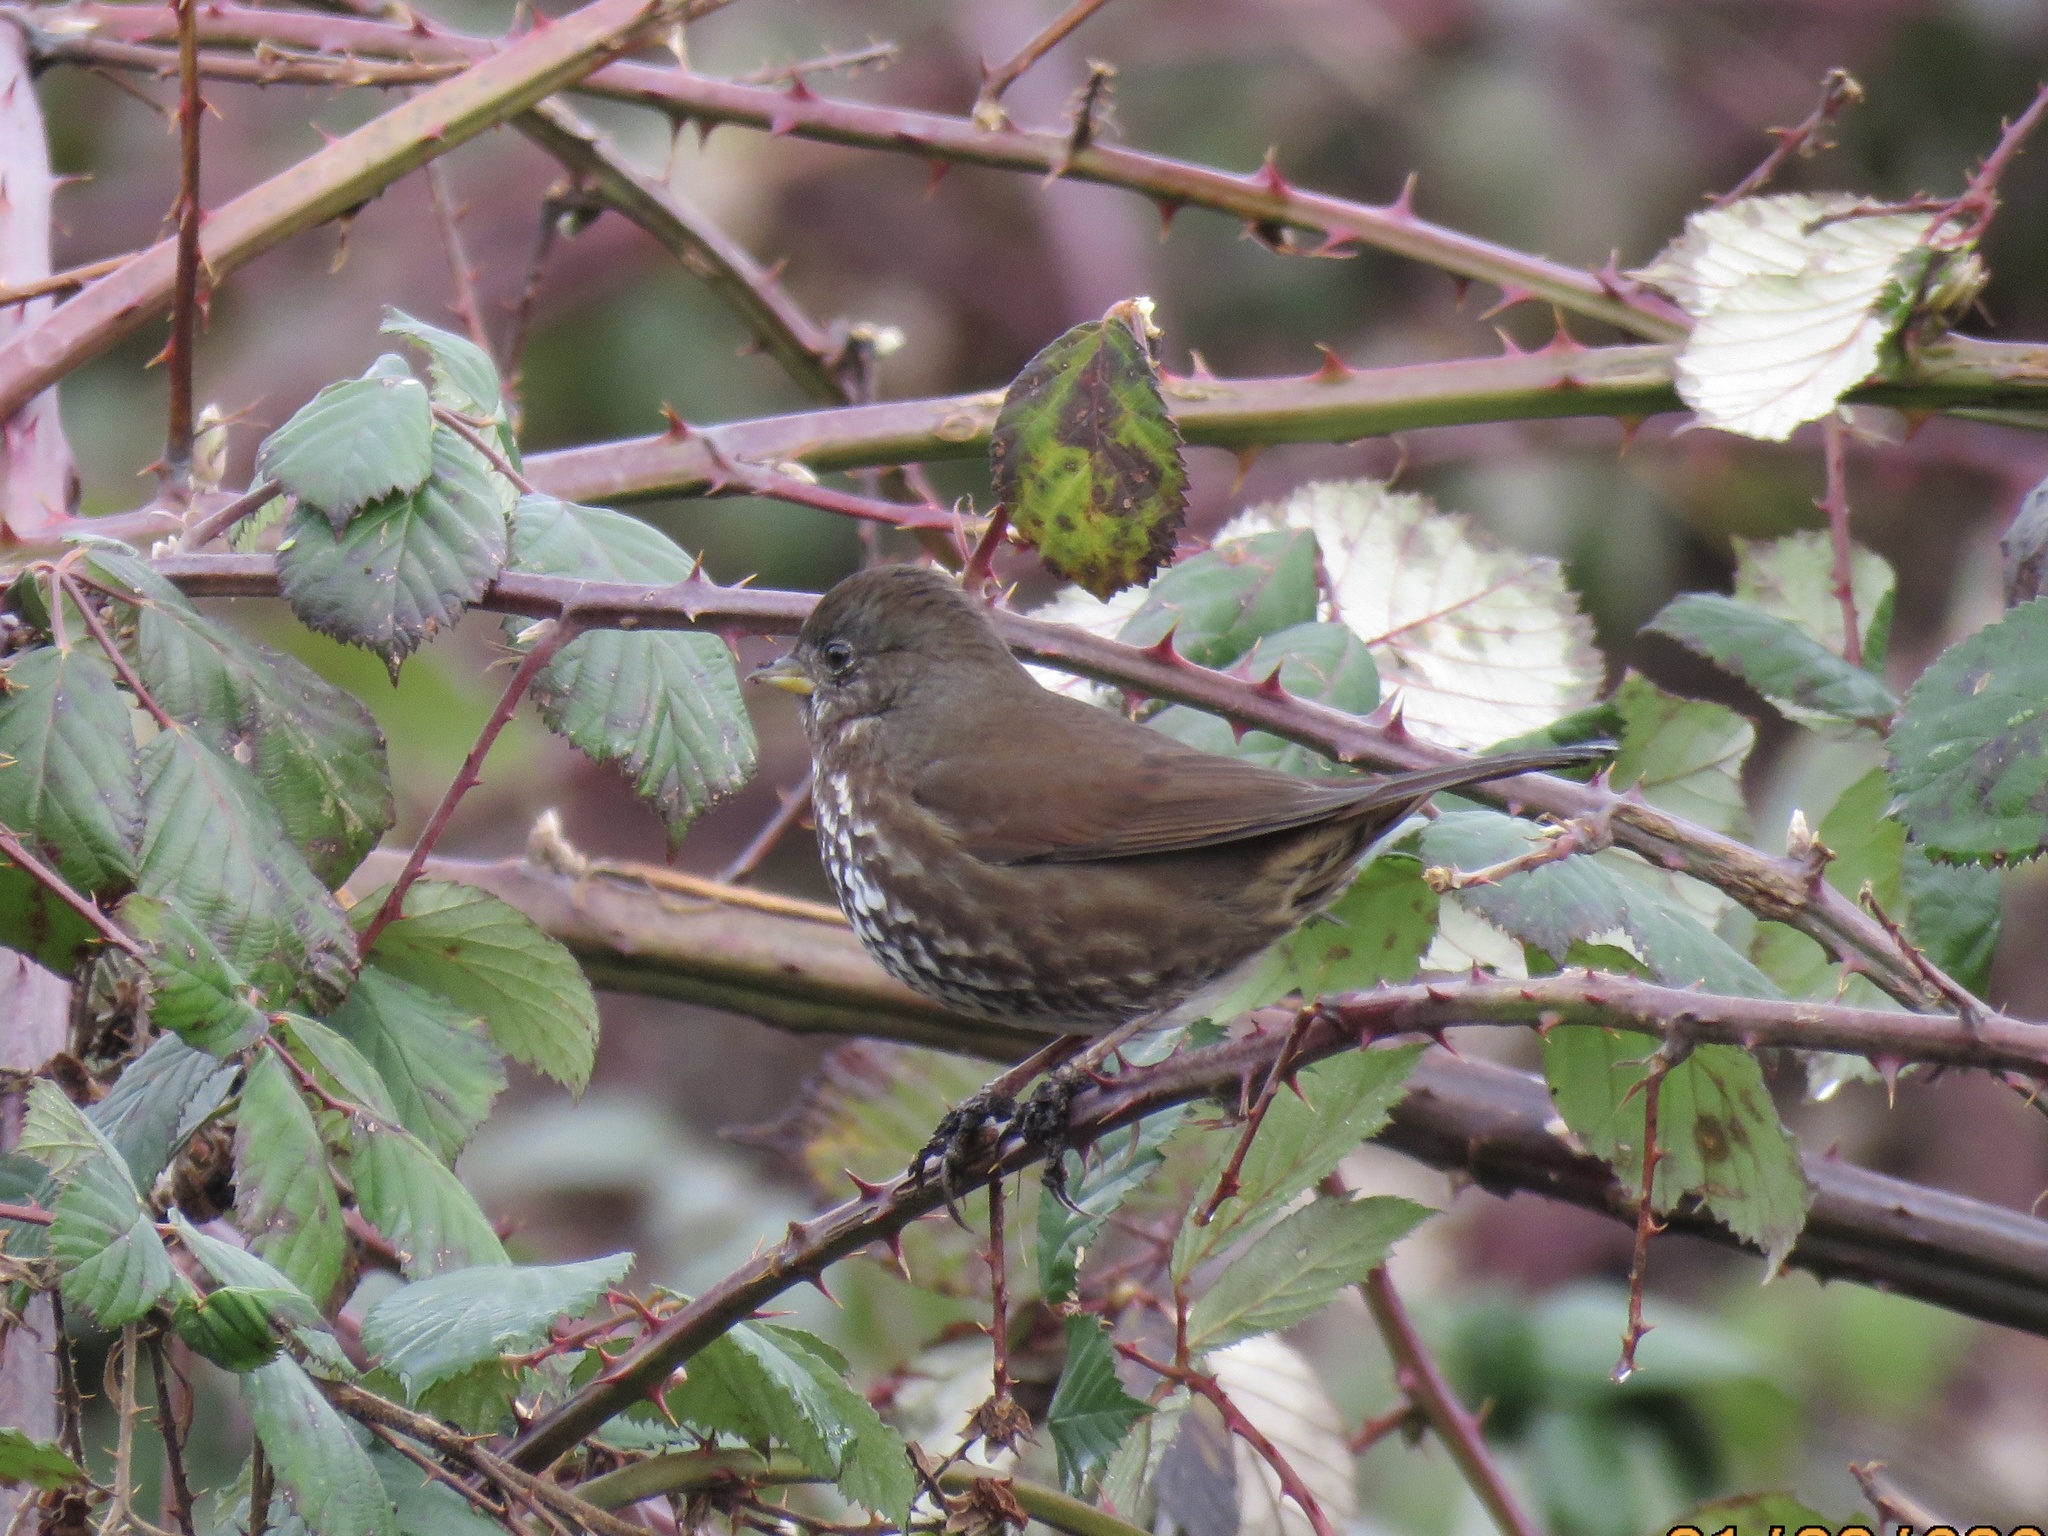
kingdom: Animalia
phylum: Chordata
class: Aves
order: Passeriformes
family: Passerellidae
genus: Passerella
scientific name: Passerella iliaca
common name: Fox sparrow
